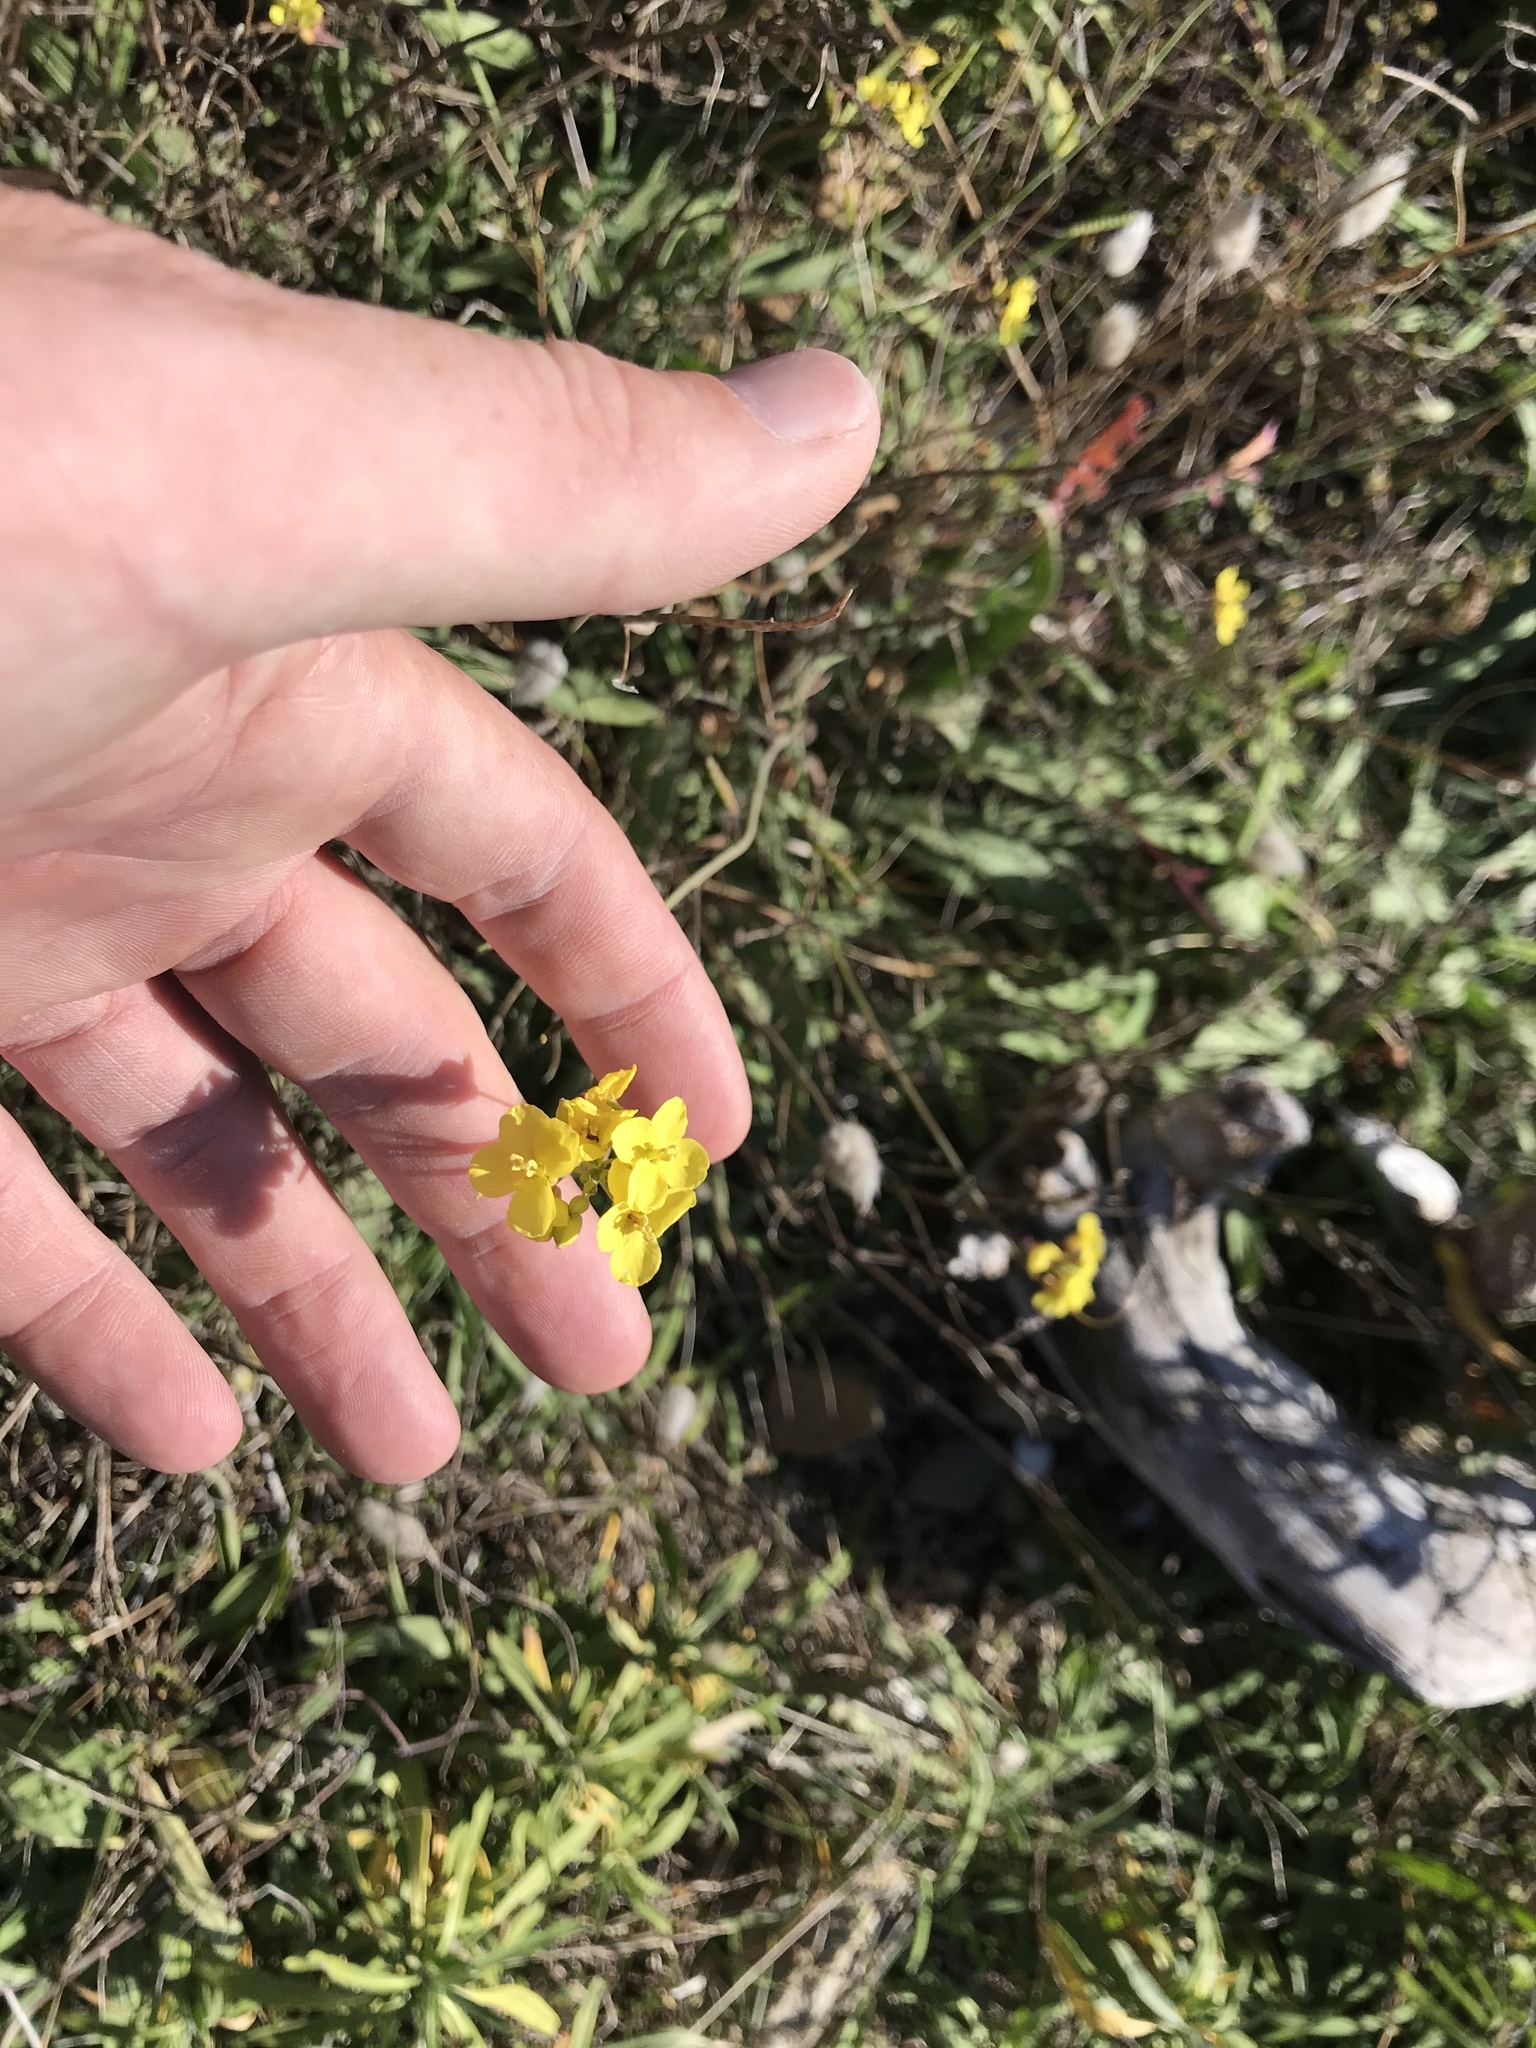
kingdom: Plantae
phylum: Tracheophyta
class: Magnoliopsida
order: Brassicales
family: Brassicaceae
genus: Brassica
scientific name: Brassica rapa
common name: Field mustard
